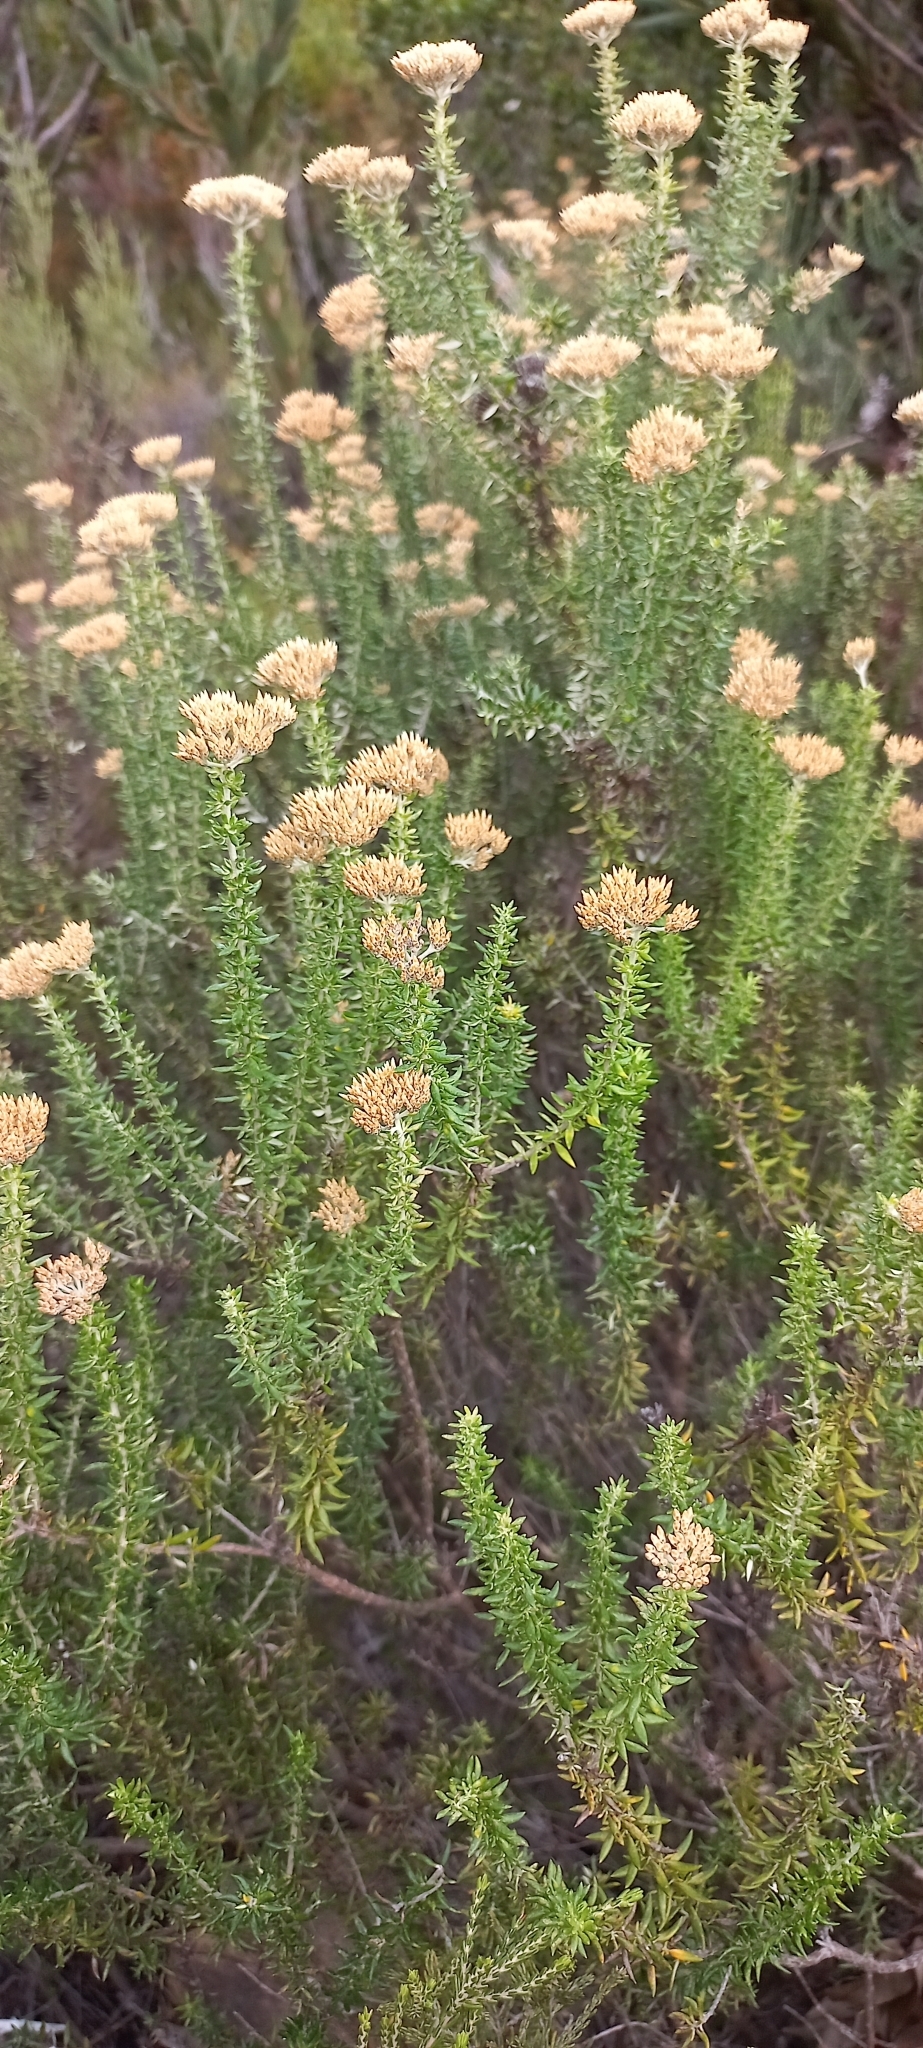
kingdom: Plantae
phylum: Tracheophyta
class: Magnoliopsida
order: Asterales
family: Asteraceae
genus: Metalasia
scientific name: Metalasia muricata
